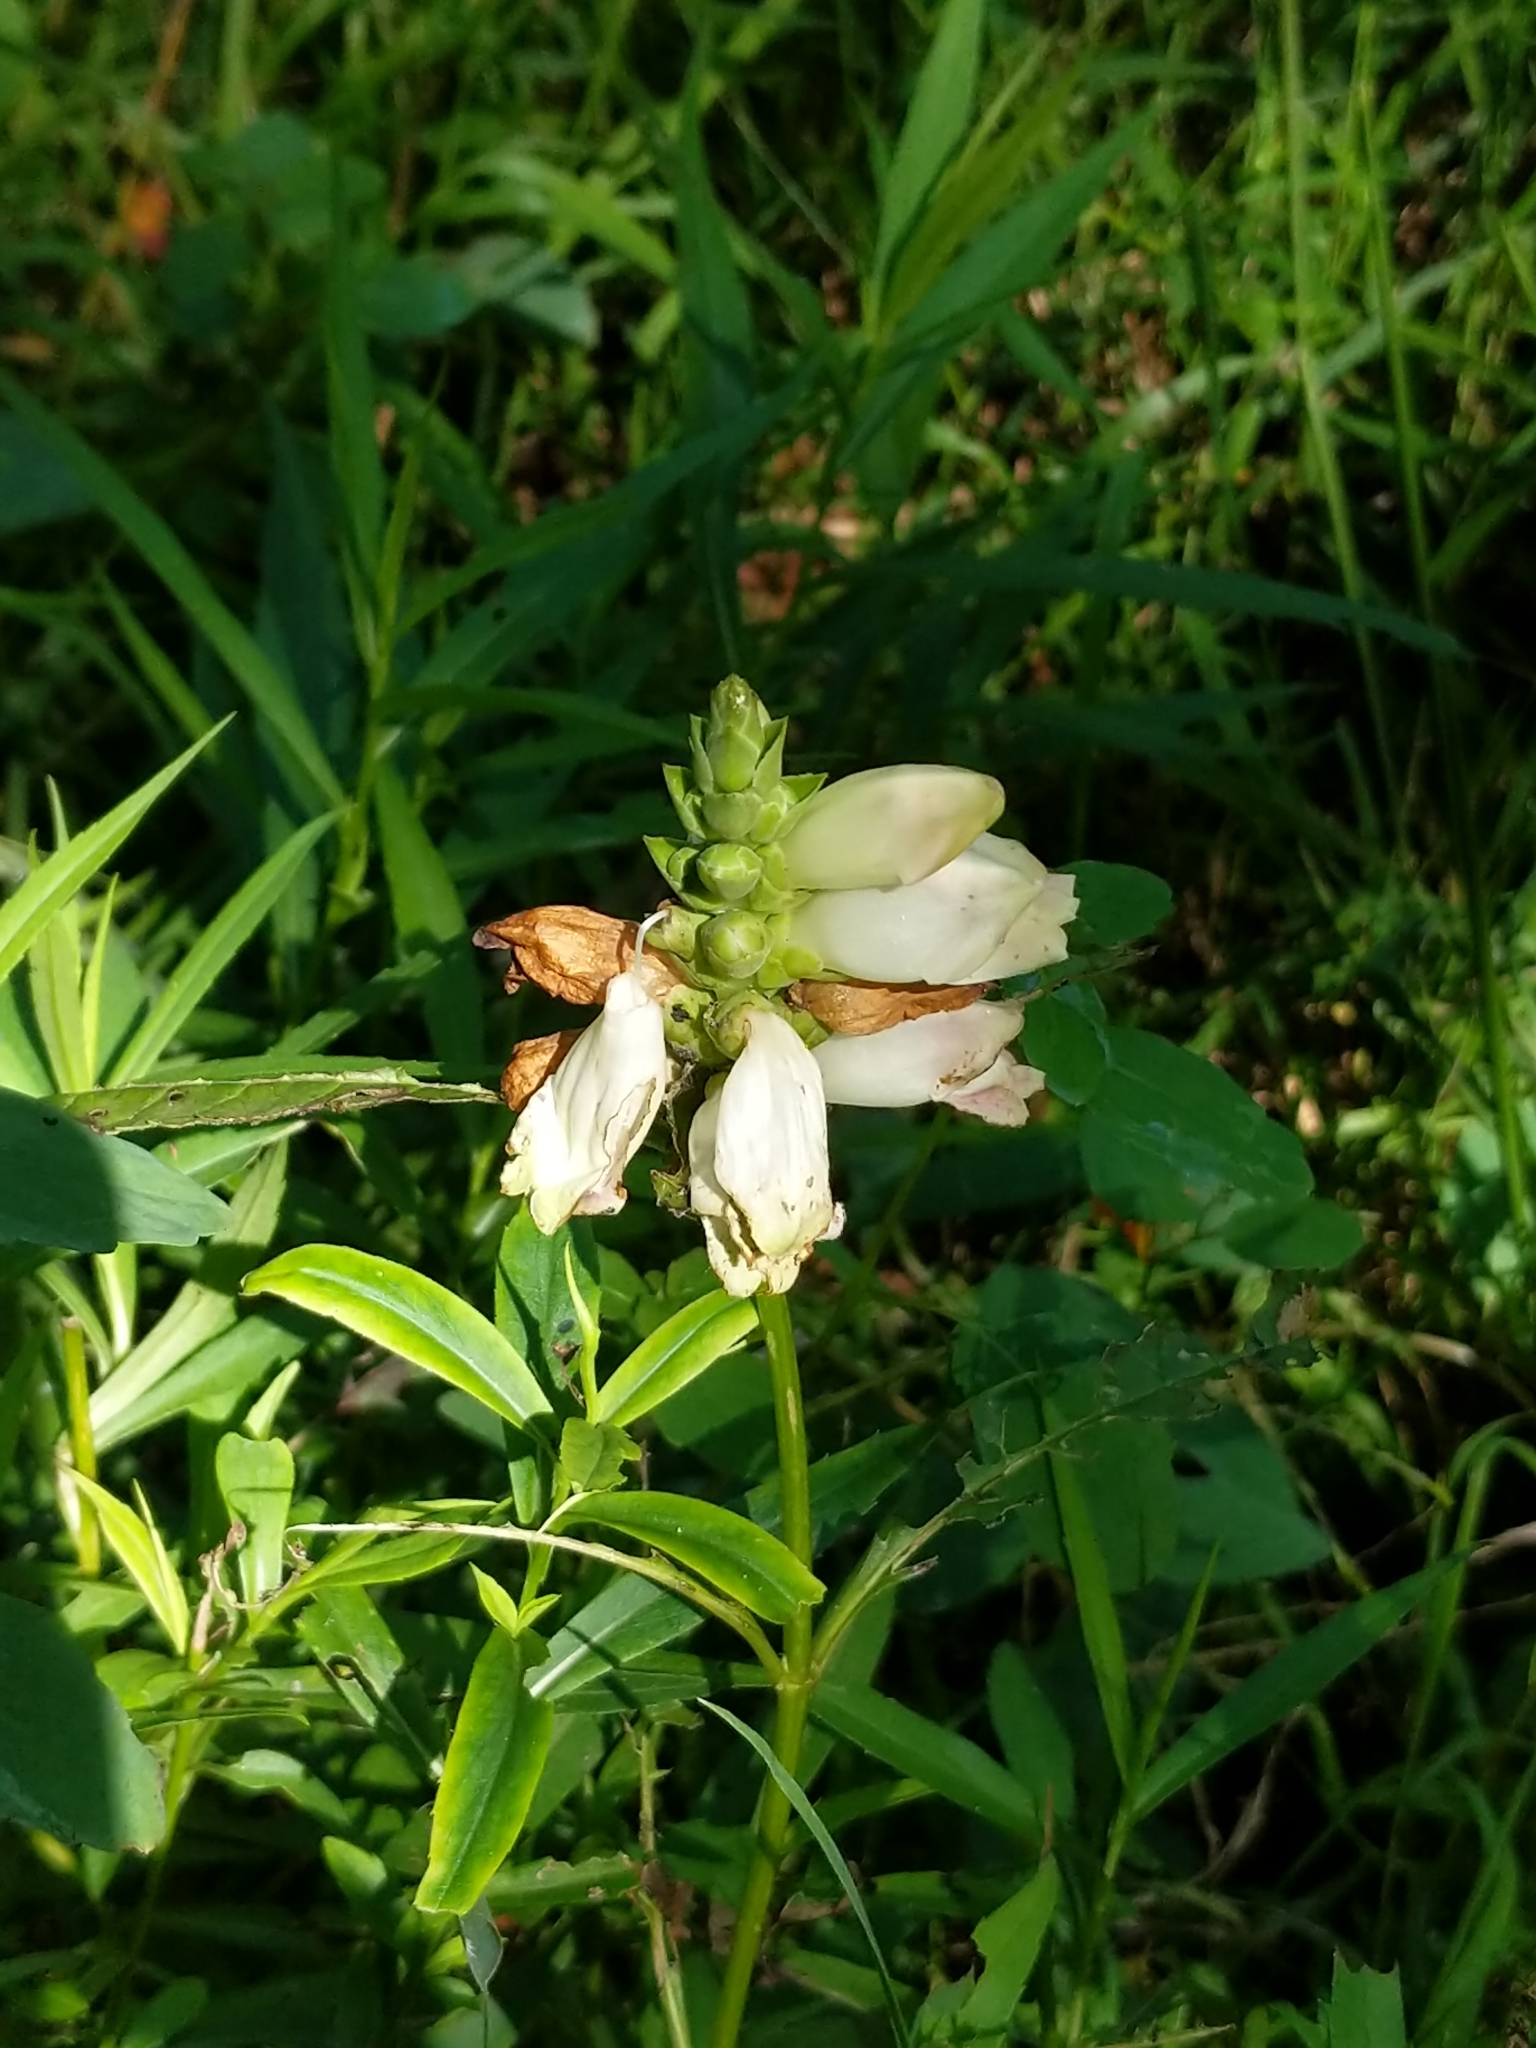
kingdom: Plantae
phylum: Tracheophyta
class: Magnoliopsida
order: Lamiales
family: Plantaginaceae
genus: Chelone
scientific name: Chelone glabra
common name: Snakehead
